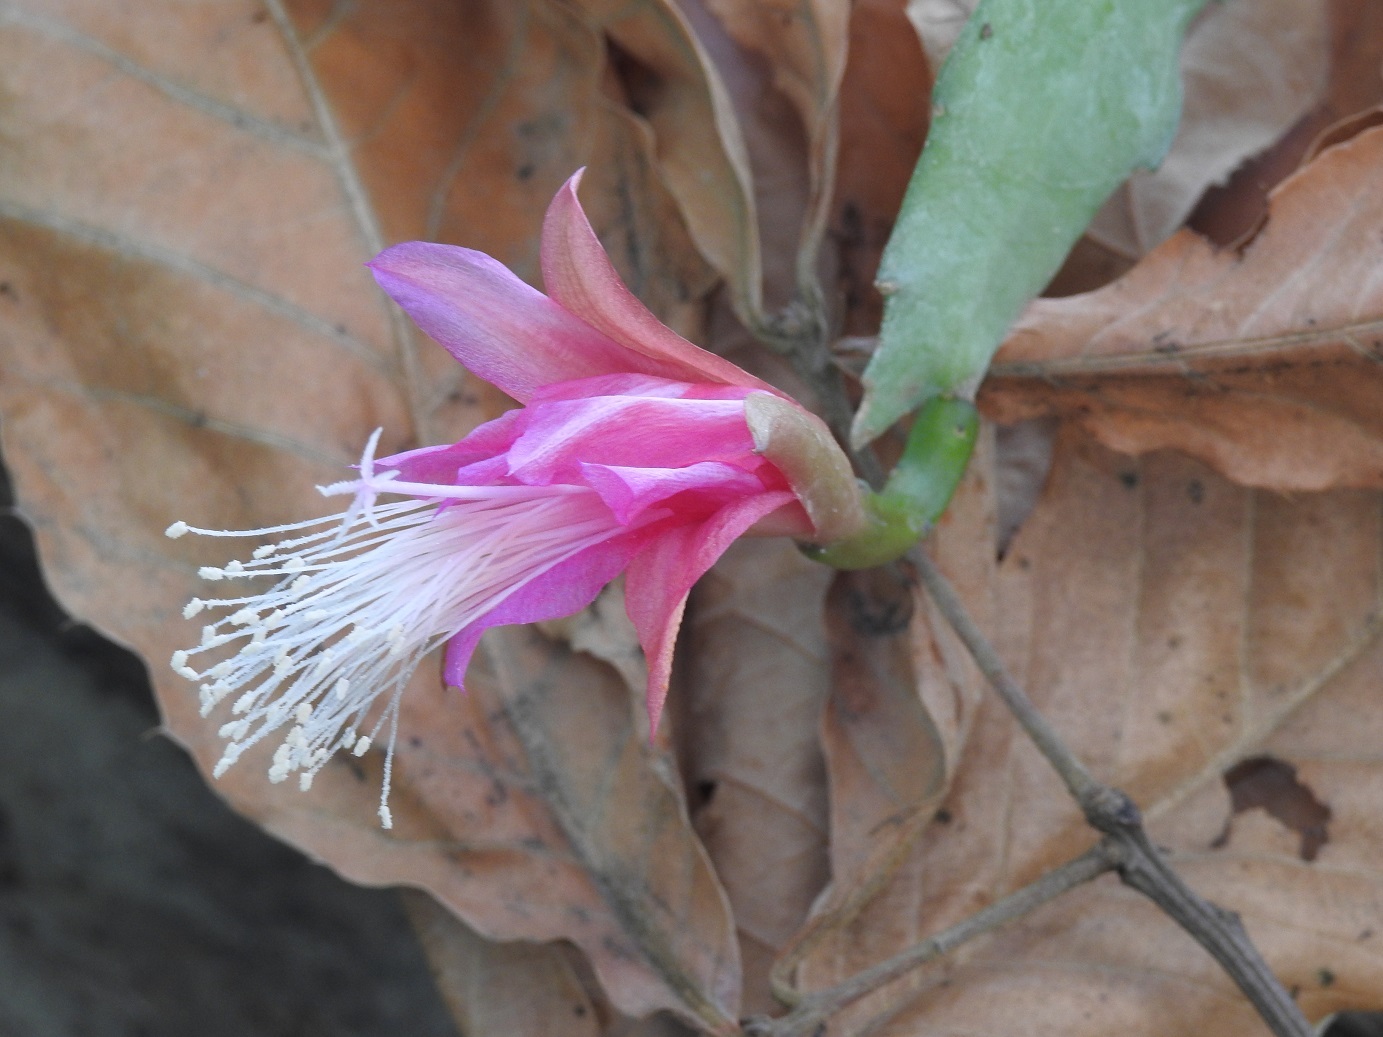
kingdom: Plantae
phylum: Tracheophyta
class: Magnoliopsida
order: Caryophyllales
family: Cactaceae
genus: Disocactus
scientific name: Disocactus nelsonii
